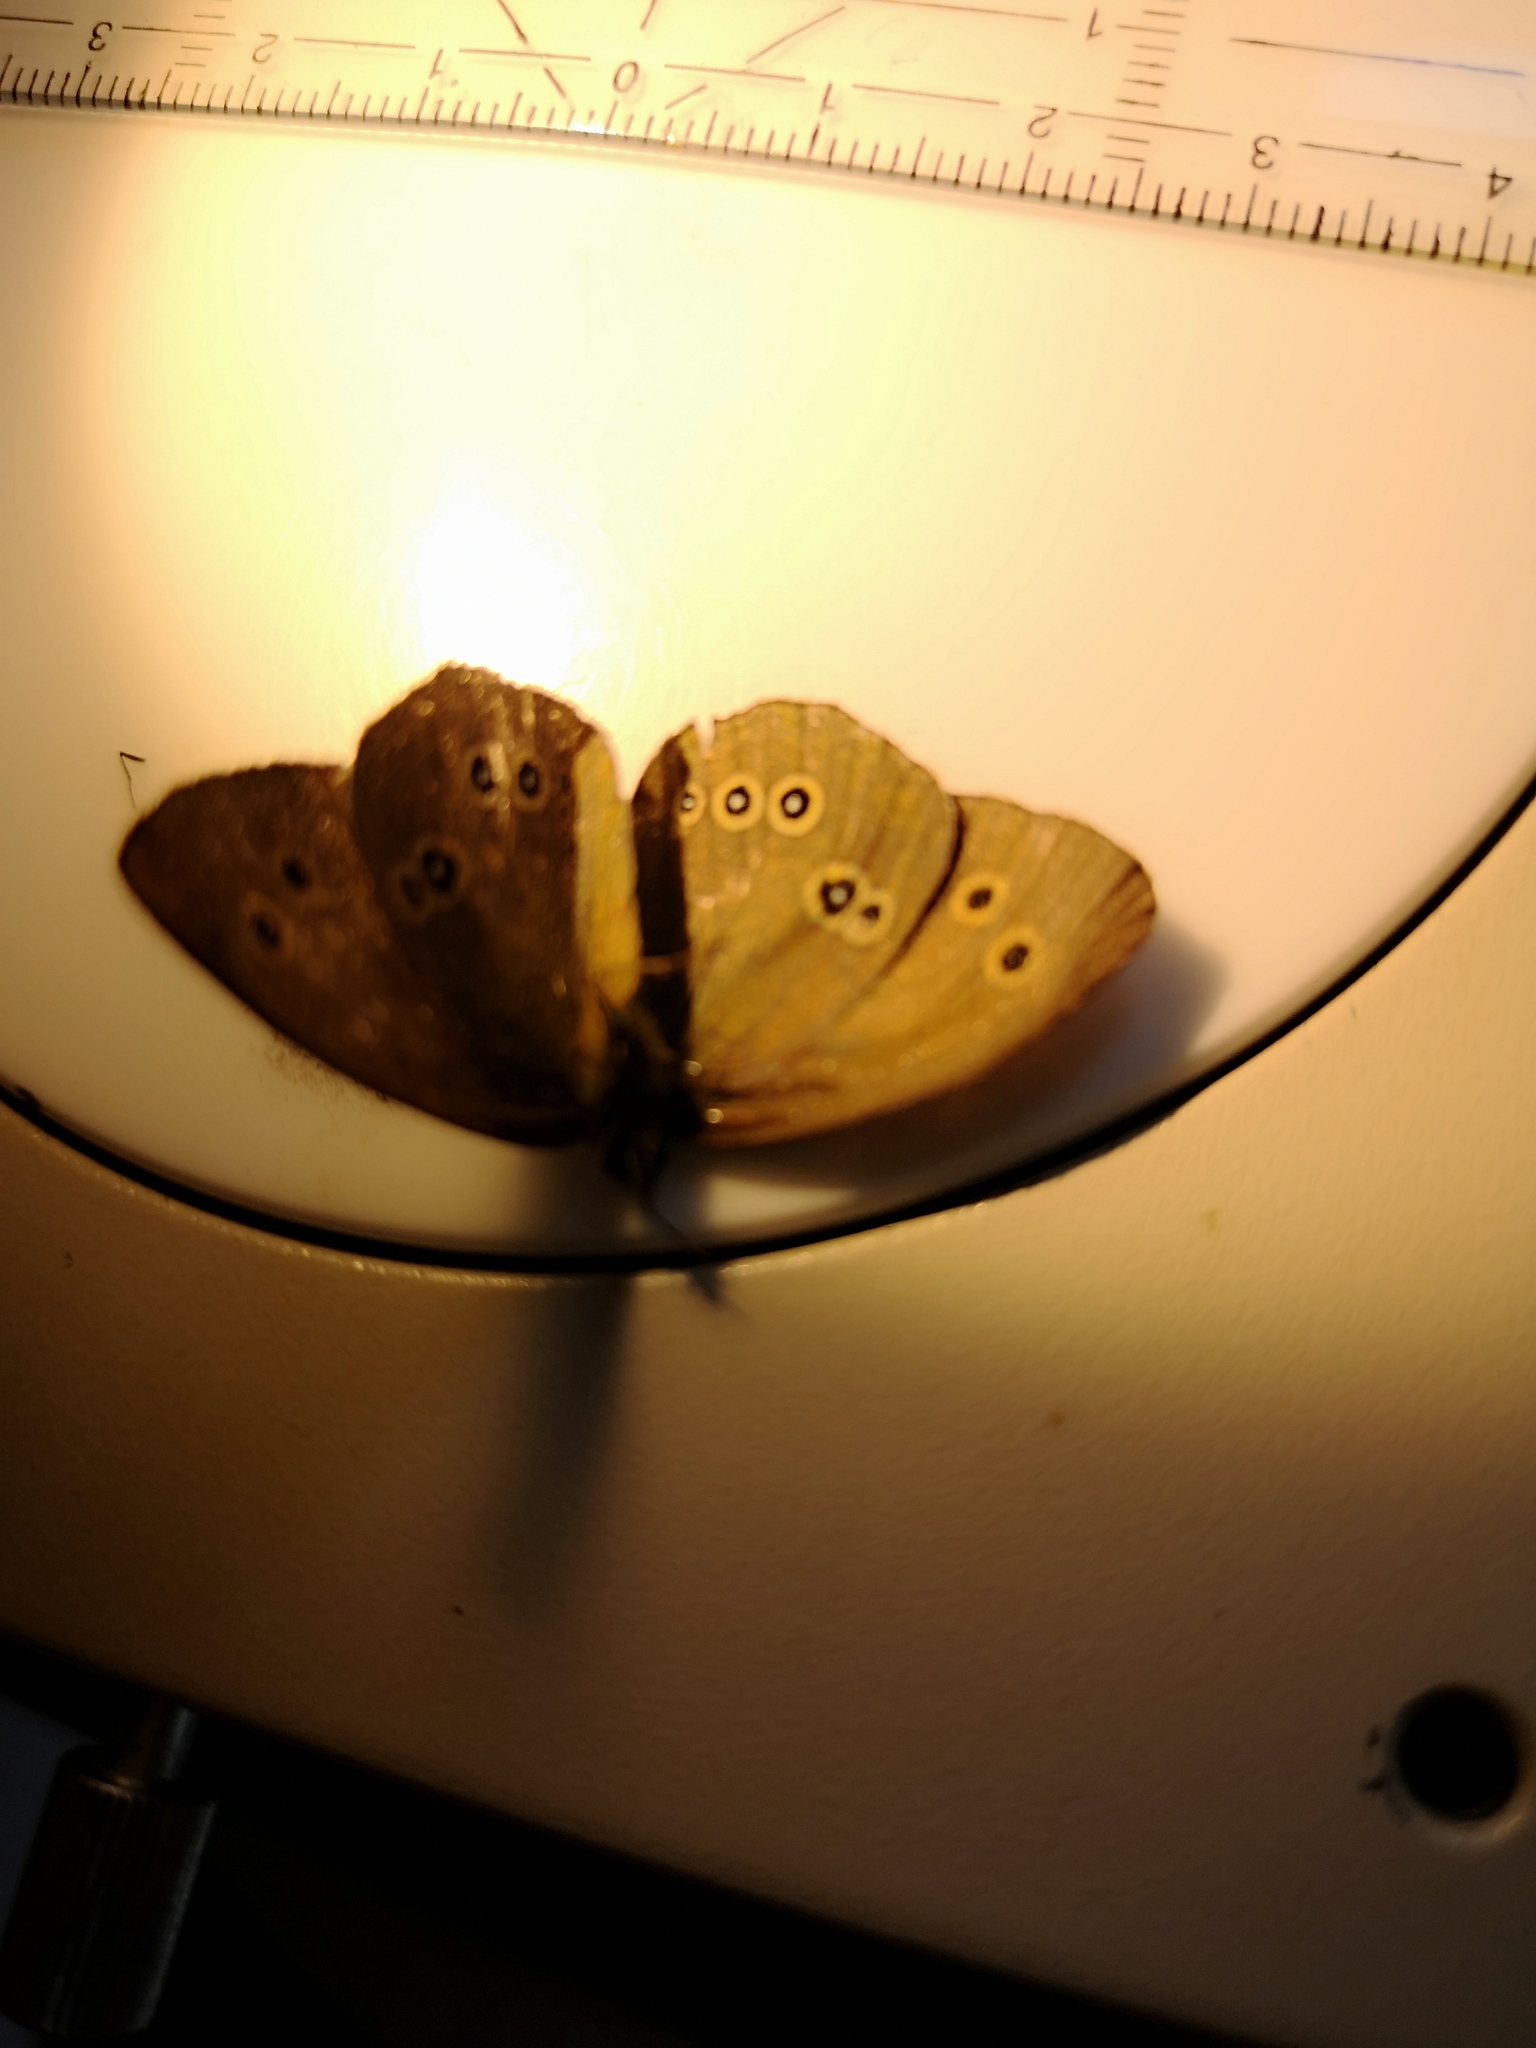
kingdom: Animalia
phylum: Arthropoda
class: Insecta
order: Lepidoptera
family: Nymphalidae
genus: Aphantopus
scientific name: Aphantopus hyperantus
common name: Ringlet
